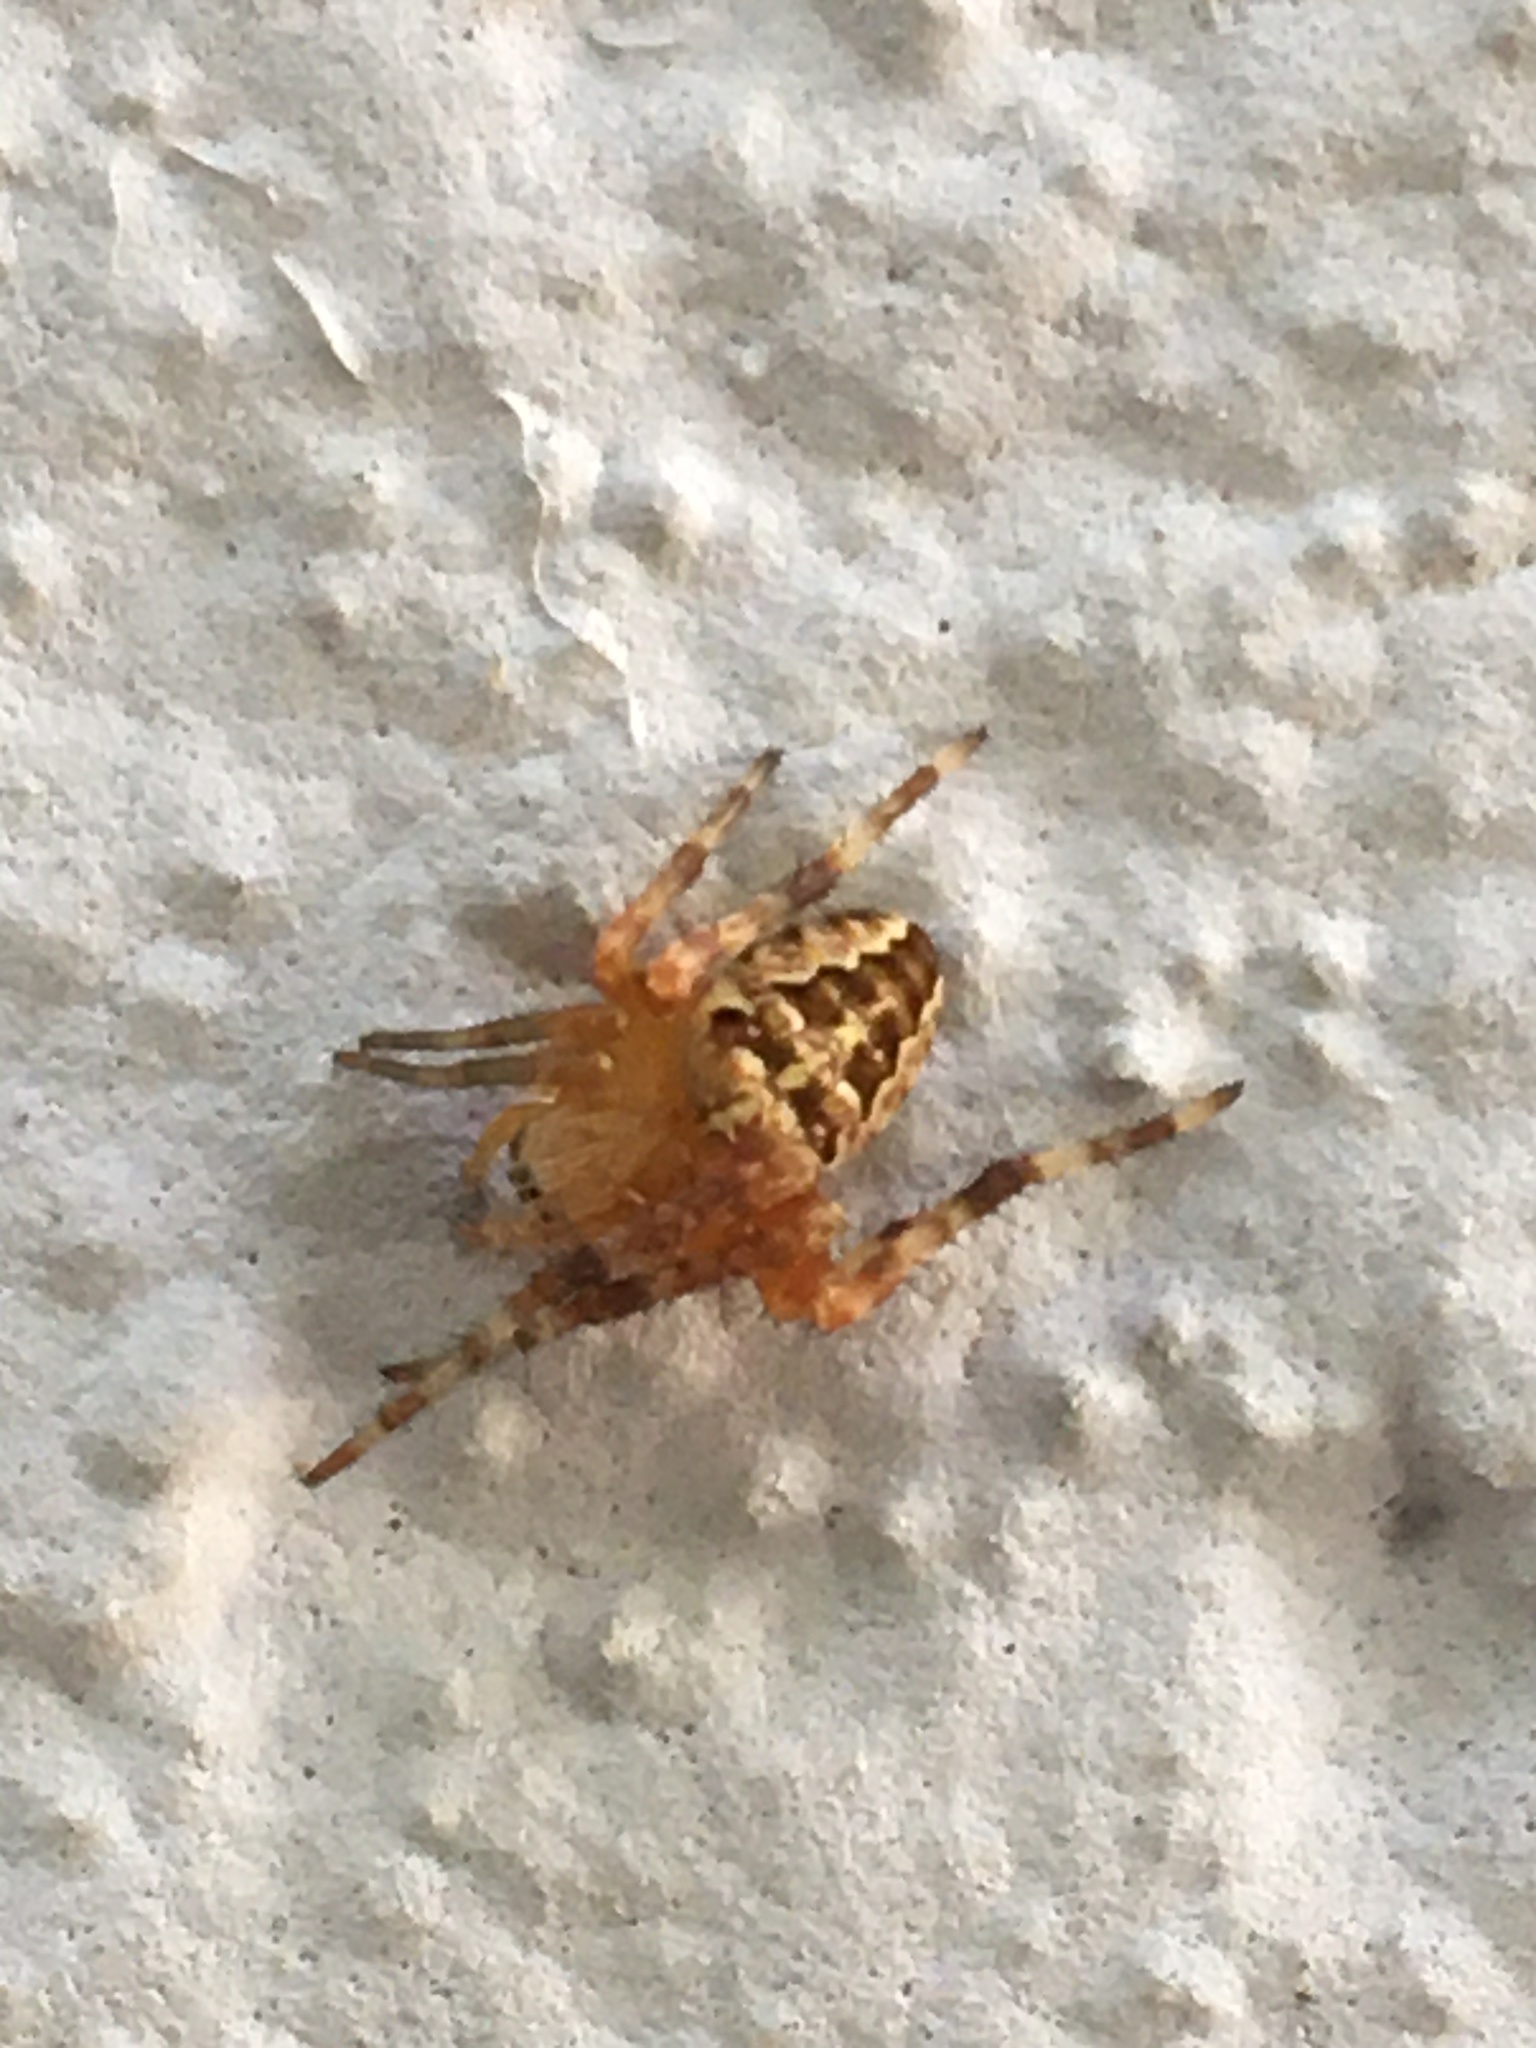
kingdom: Animalia
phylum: Arthropoda
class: Arachnida
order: Araneae
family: Araneidae
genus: Araneus
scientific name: Araneus diadematus
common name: Cross orbweaver
